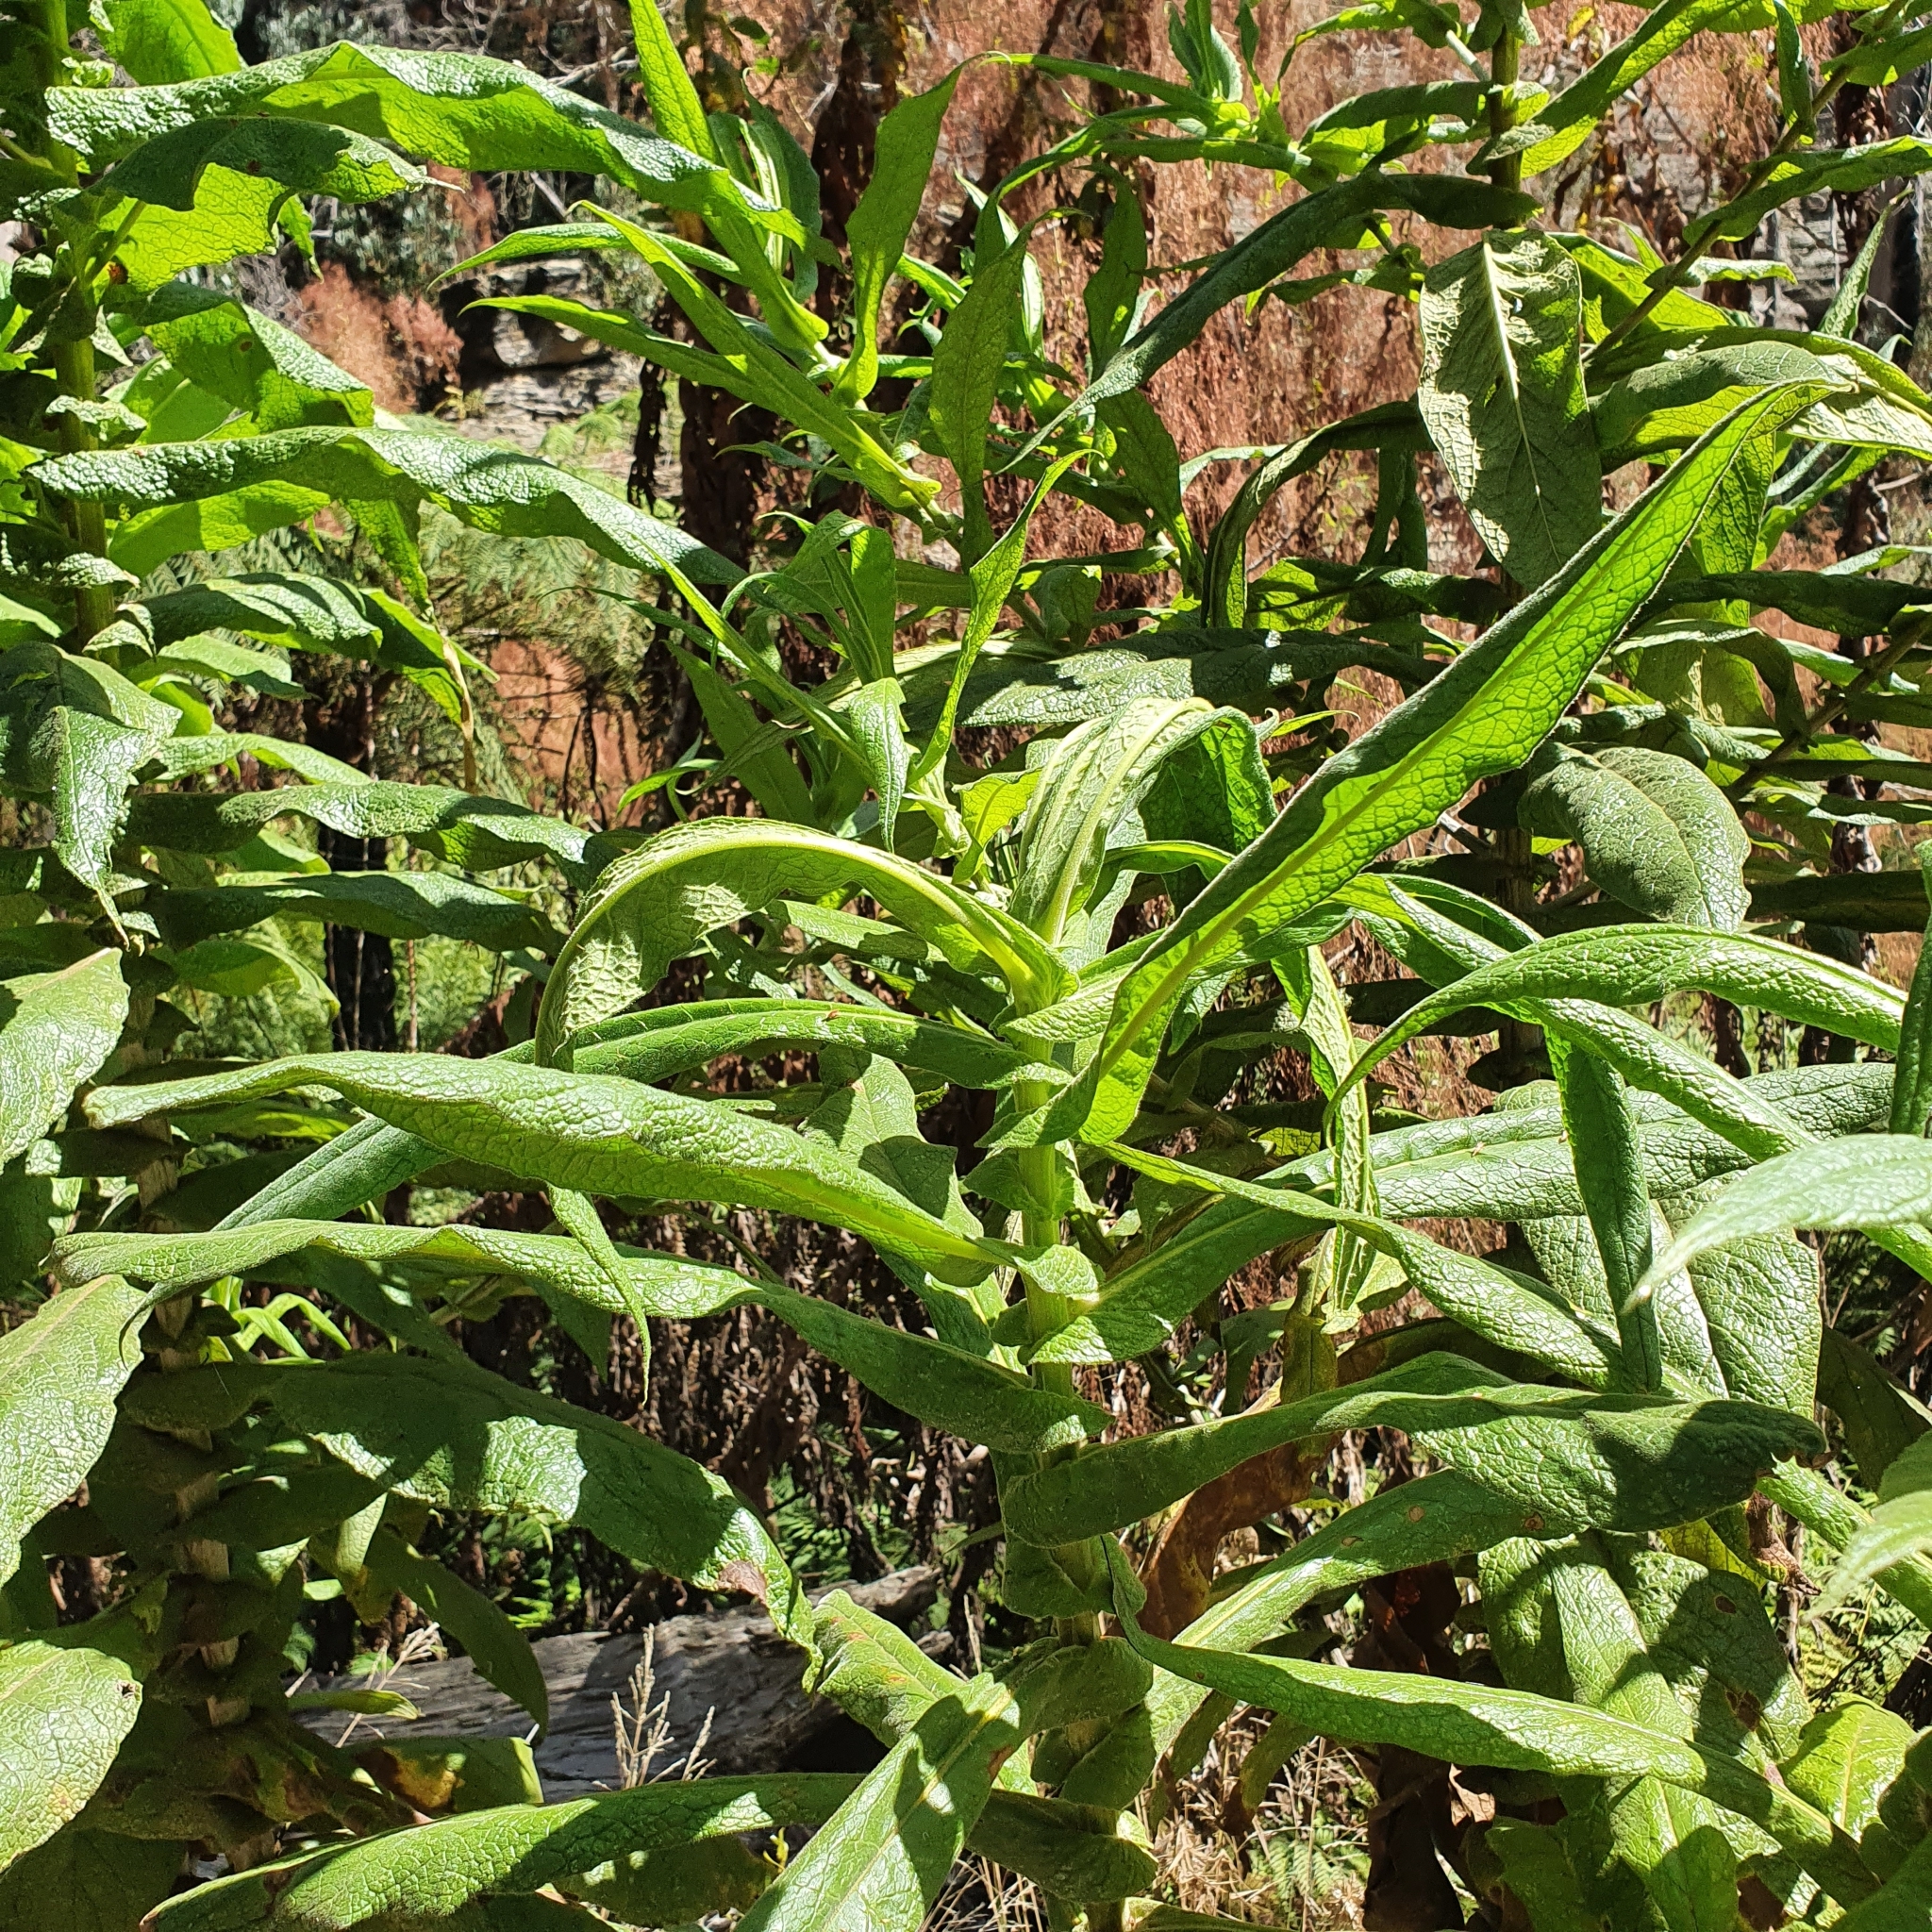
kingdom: Plantae
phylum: Tracheophyta
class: Magnoliopsida
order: Asterales
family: Asteraceae
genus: Calomeria
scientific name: Calomeria amaranthoides
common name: Incenseplant
